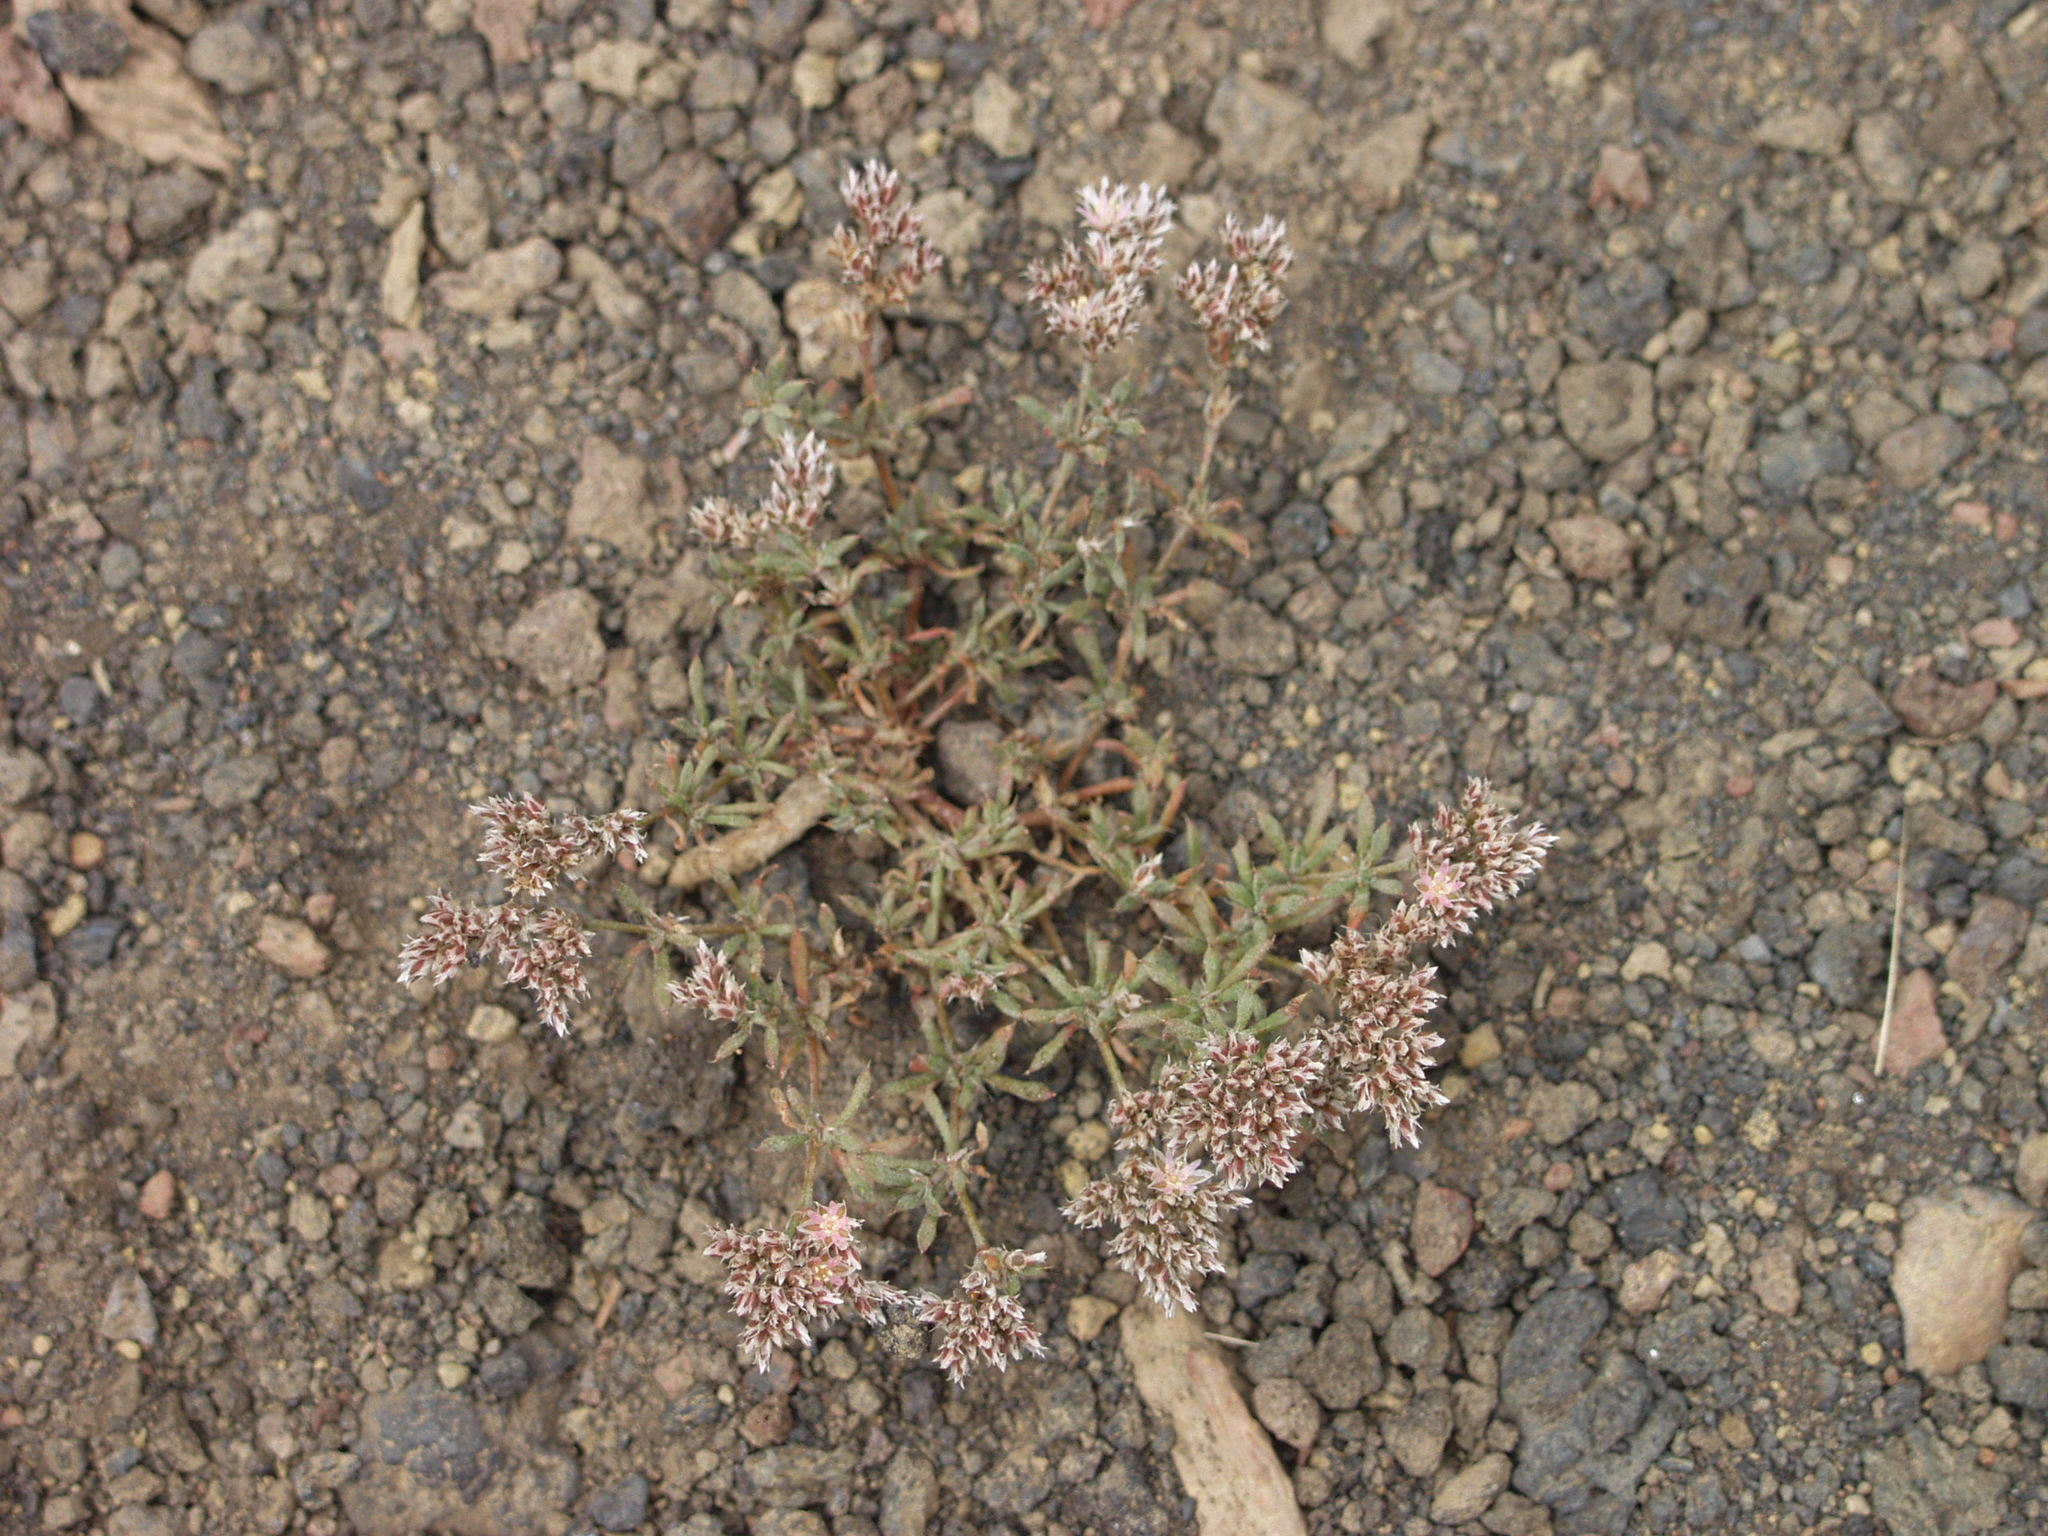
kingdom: Plantae
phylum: Tracheophyta
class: Magnoliopsida
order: Caryophyllales
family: Caryophyllaceae
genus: Polycarpaea
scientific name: Polycarpaea aristata
